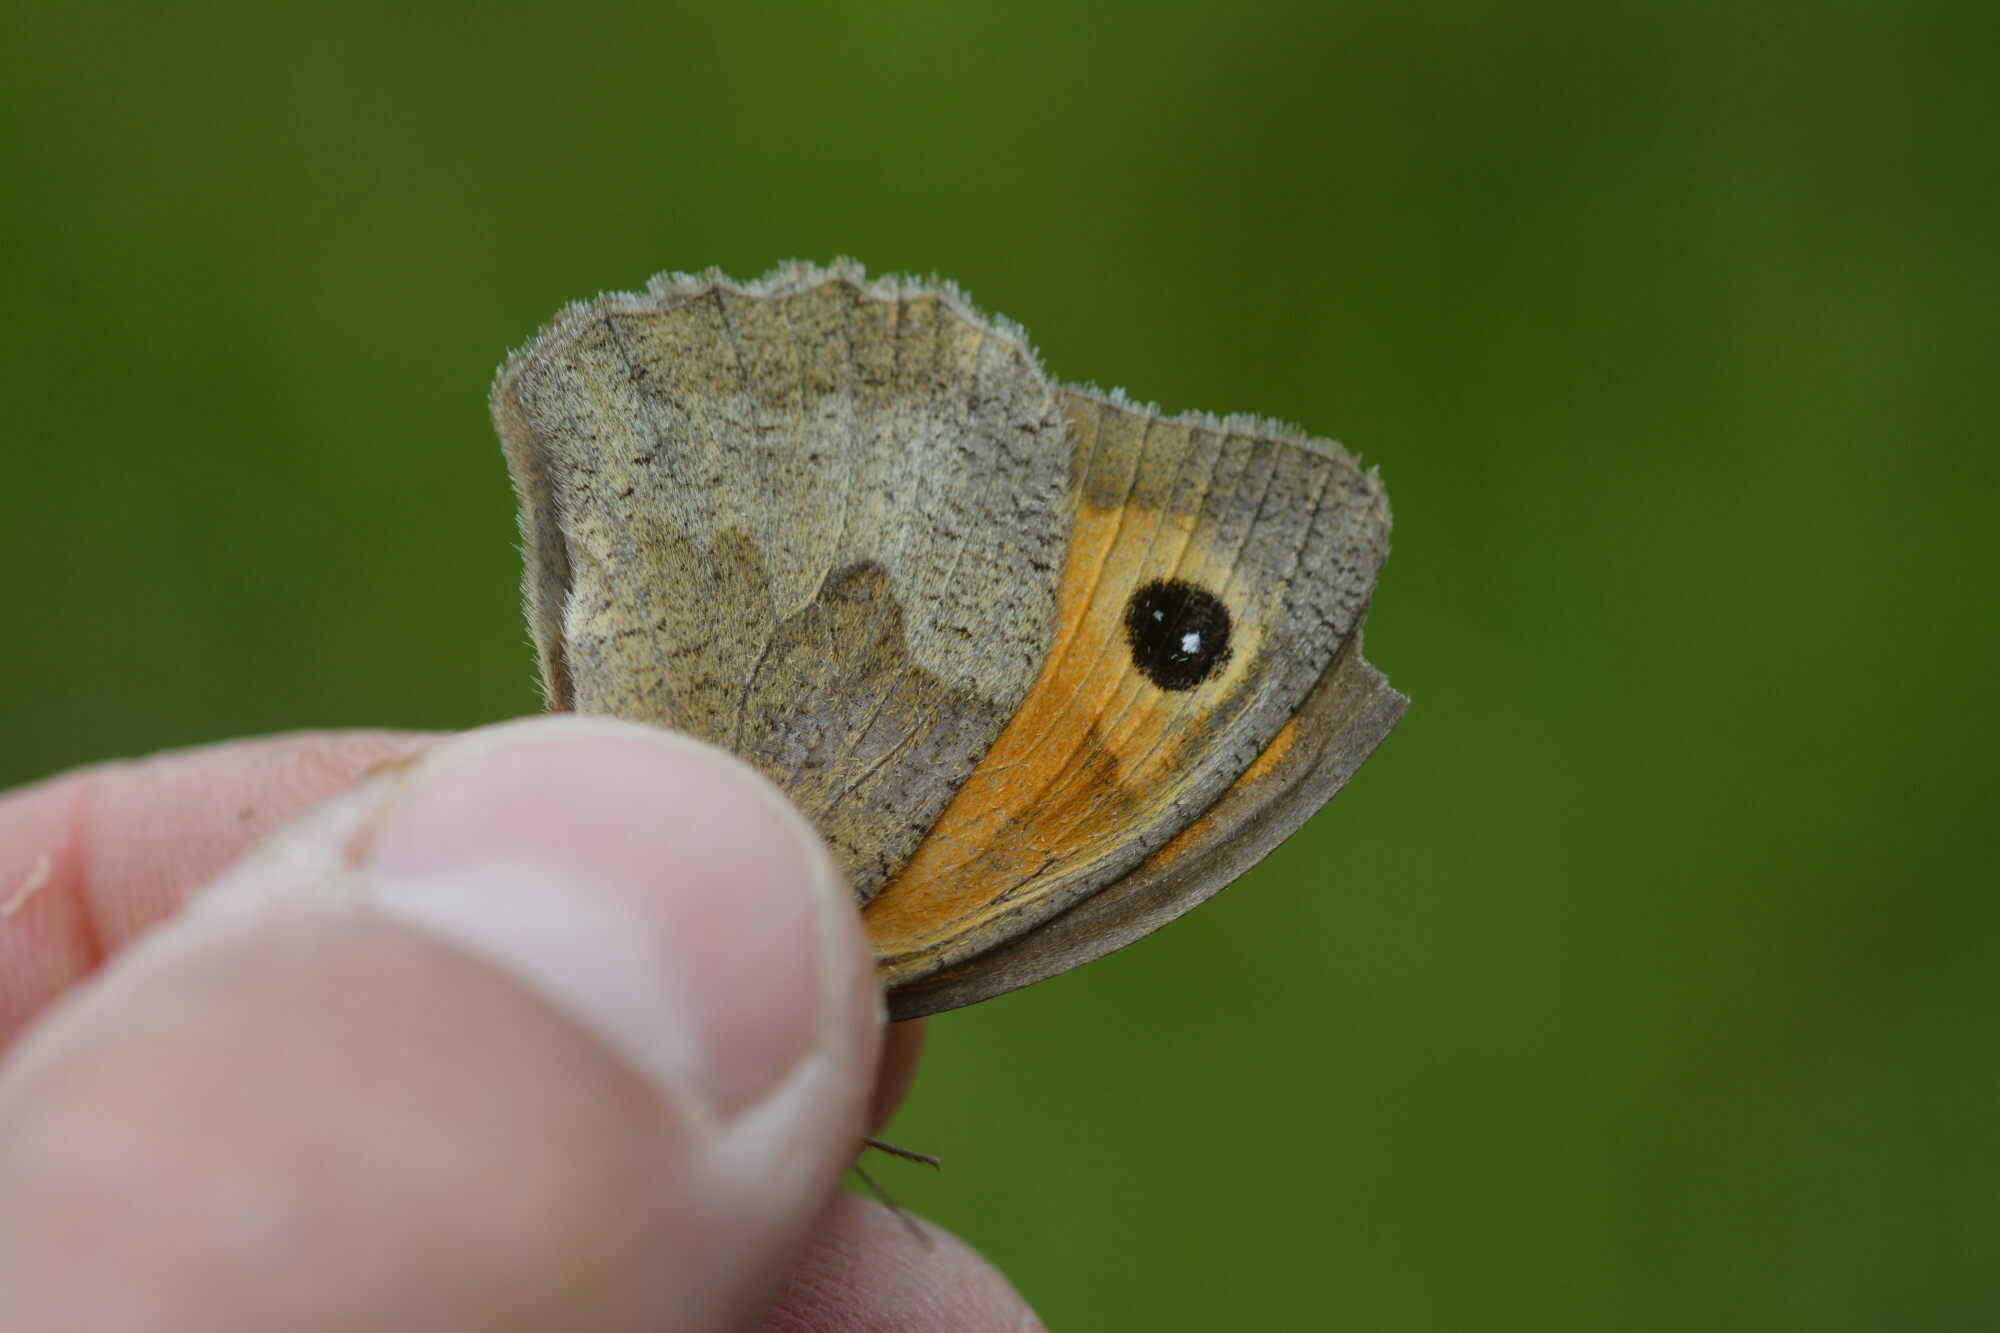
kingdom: Animalia
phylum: Arthropoda
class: Insecta
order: Lepidoptera
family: Nymphalidae
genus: Maniola
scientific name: Maniola jurtina
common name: Meadow brown
